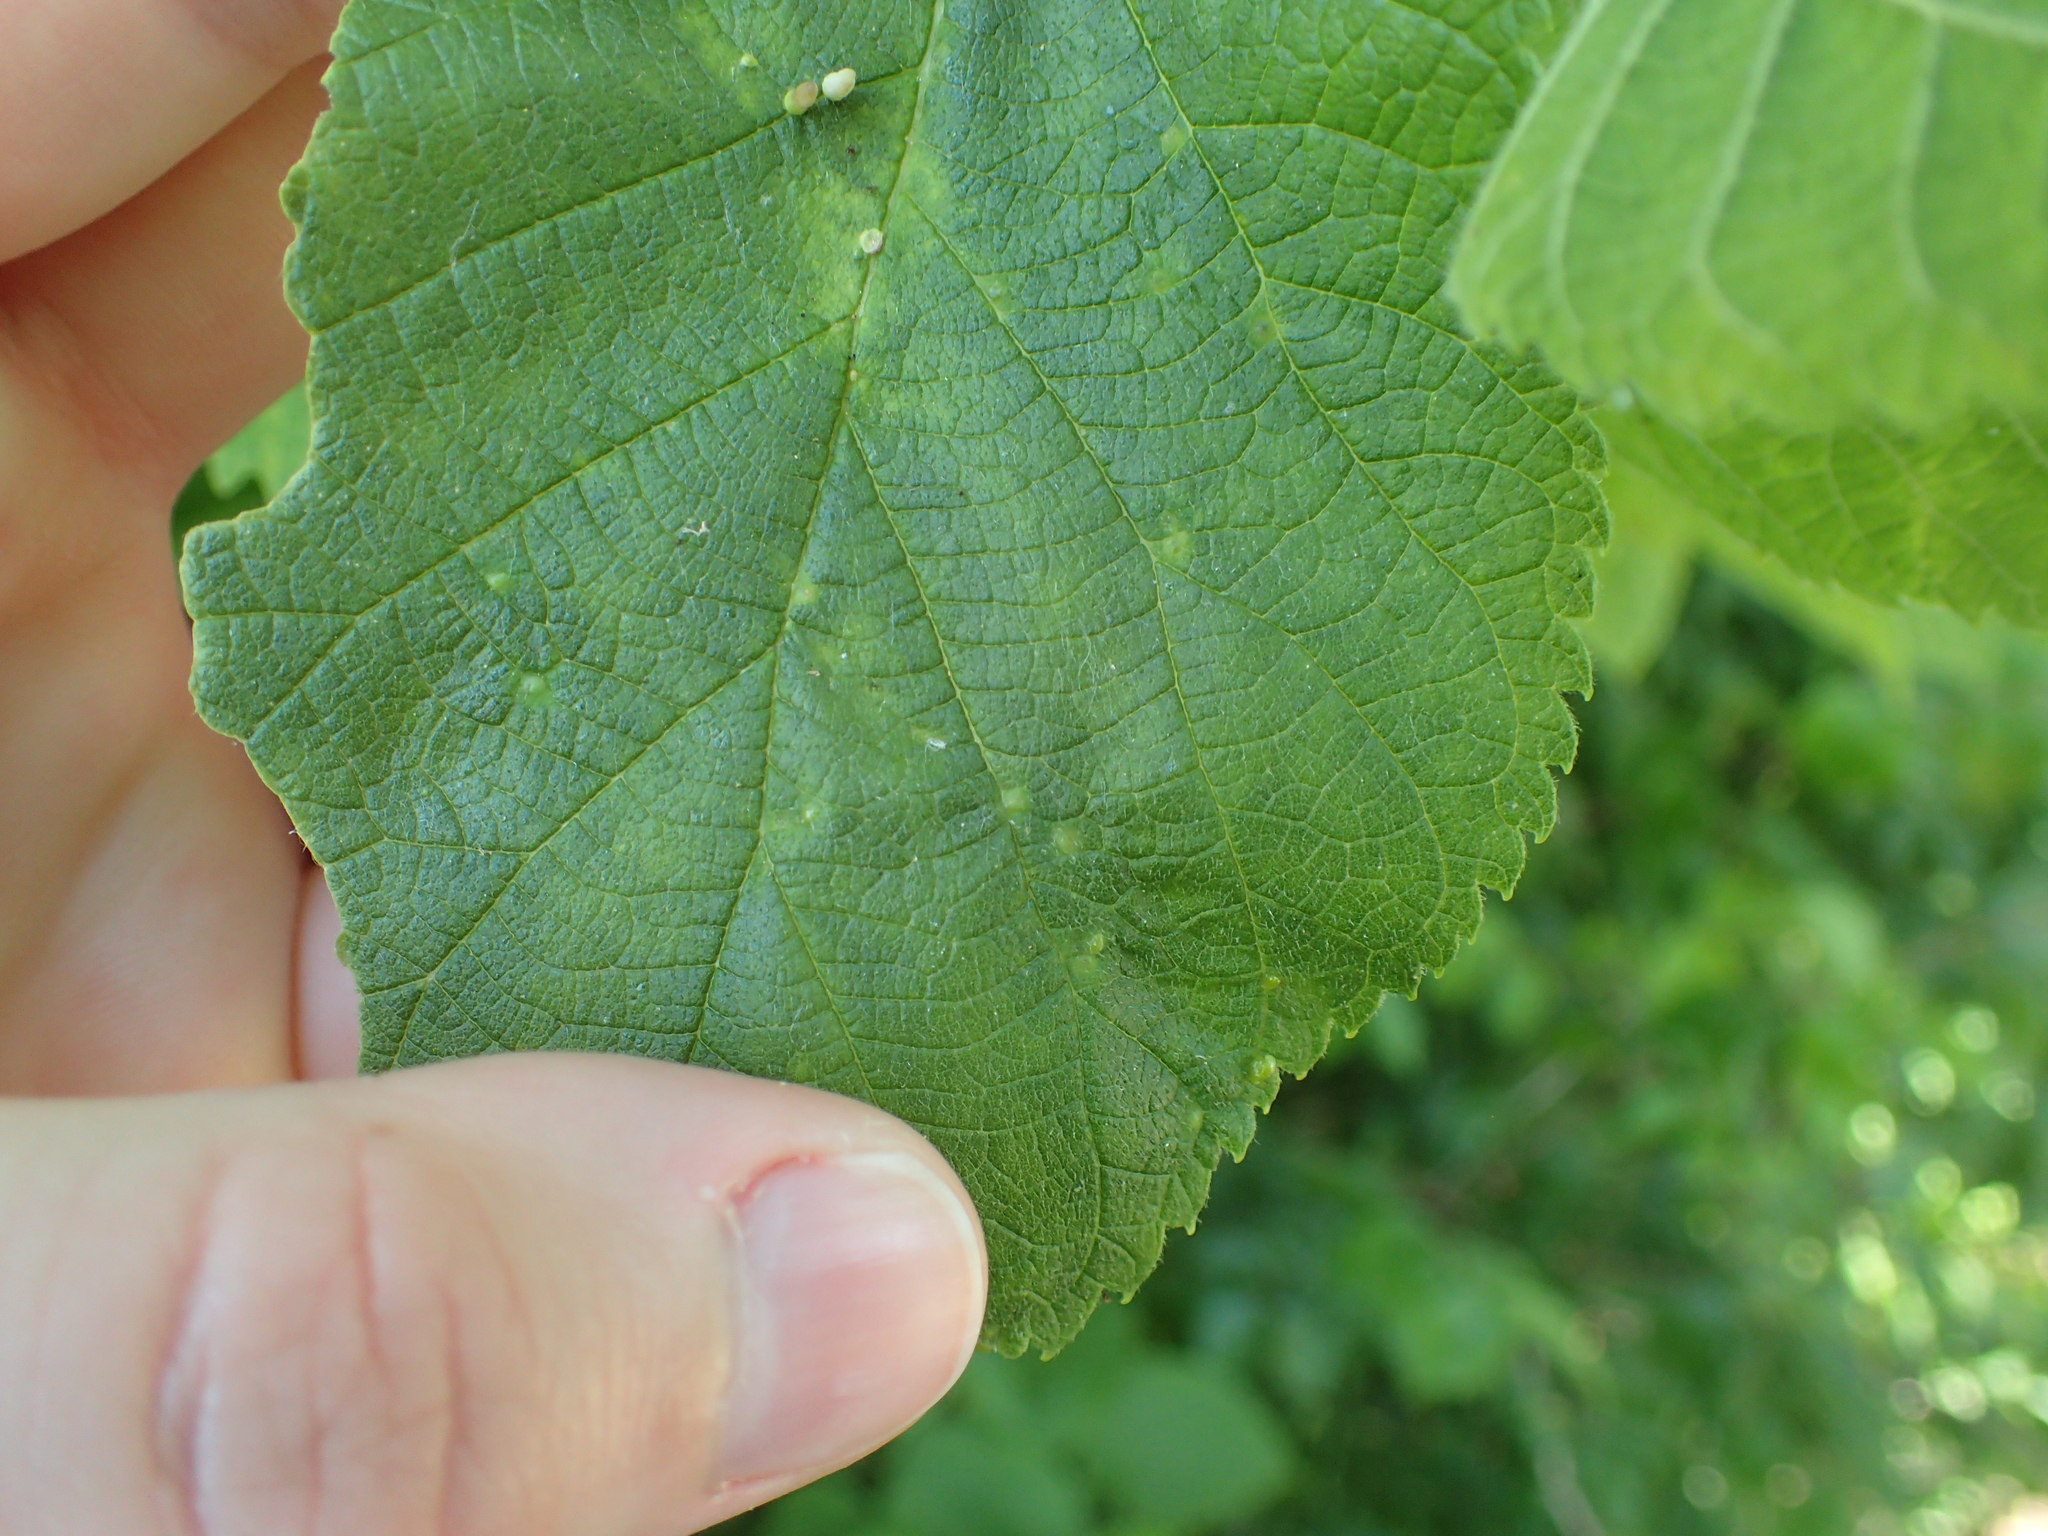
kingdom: Animalia
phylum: Arthropoda
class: Insecta
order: Diptera
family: Cecidomyiidae
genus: Celticecis
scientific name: Celticecis spiniformis
